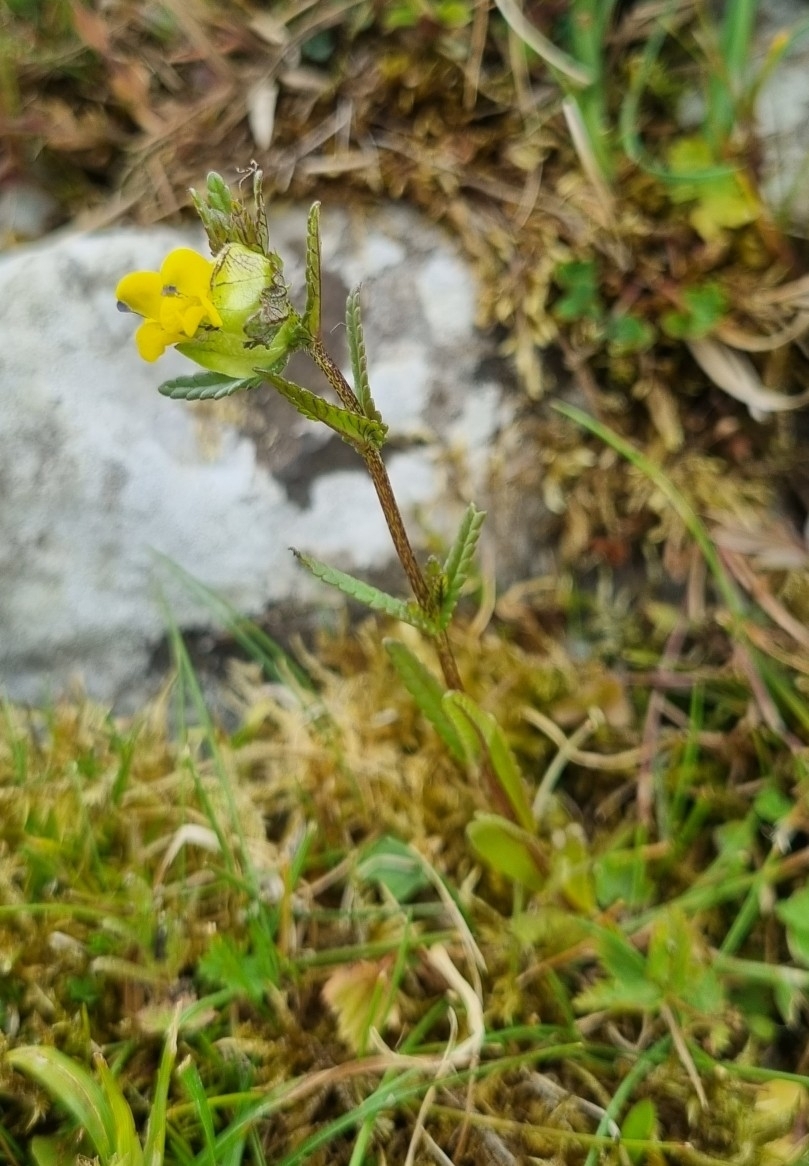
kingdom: Plantae
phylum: Tracheophyta
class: Magnoliopsida
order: Lamiales
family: Orobanchaceae
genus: Rhinanthus
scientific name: Rhinanthus minor
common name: Yellow-rattle
